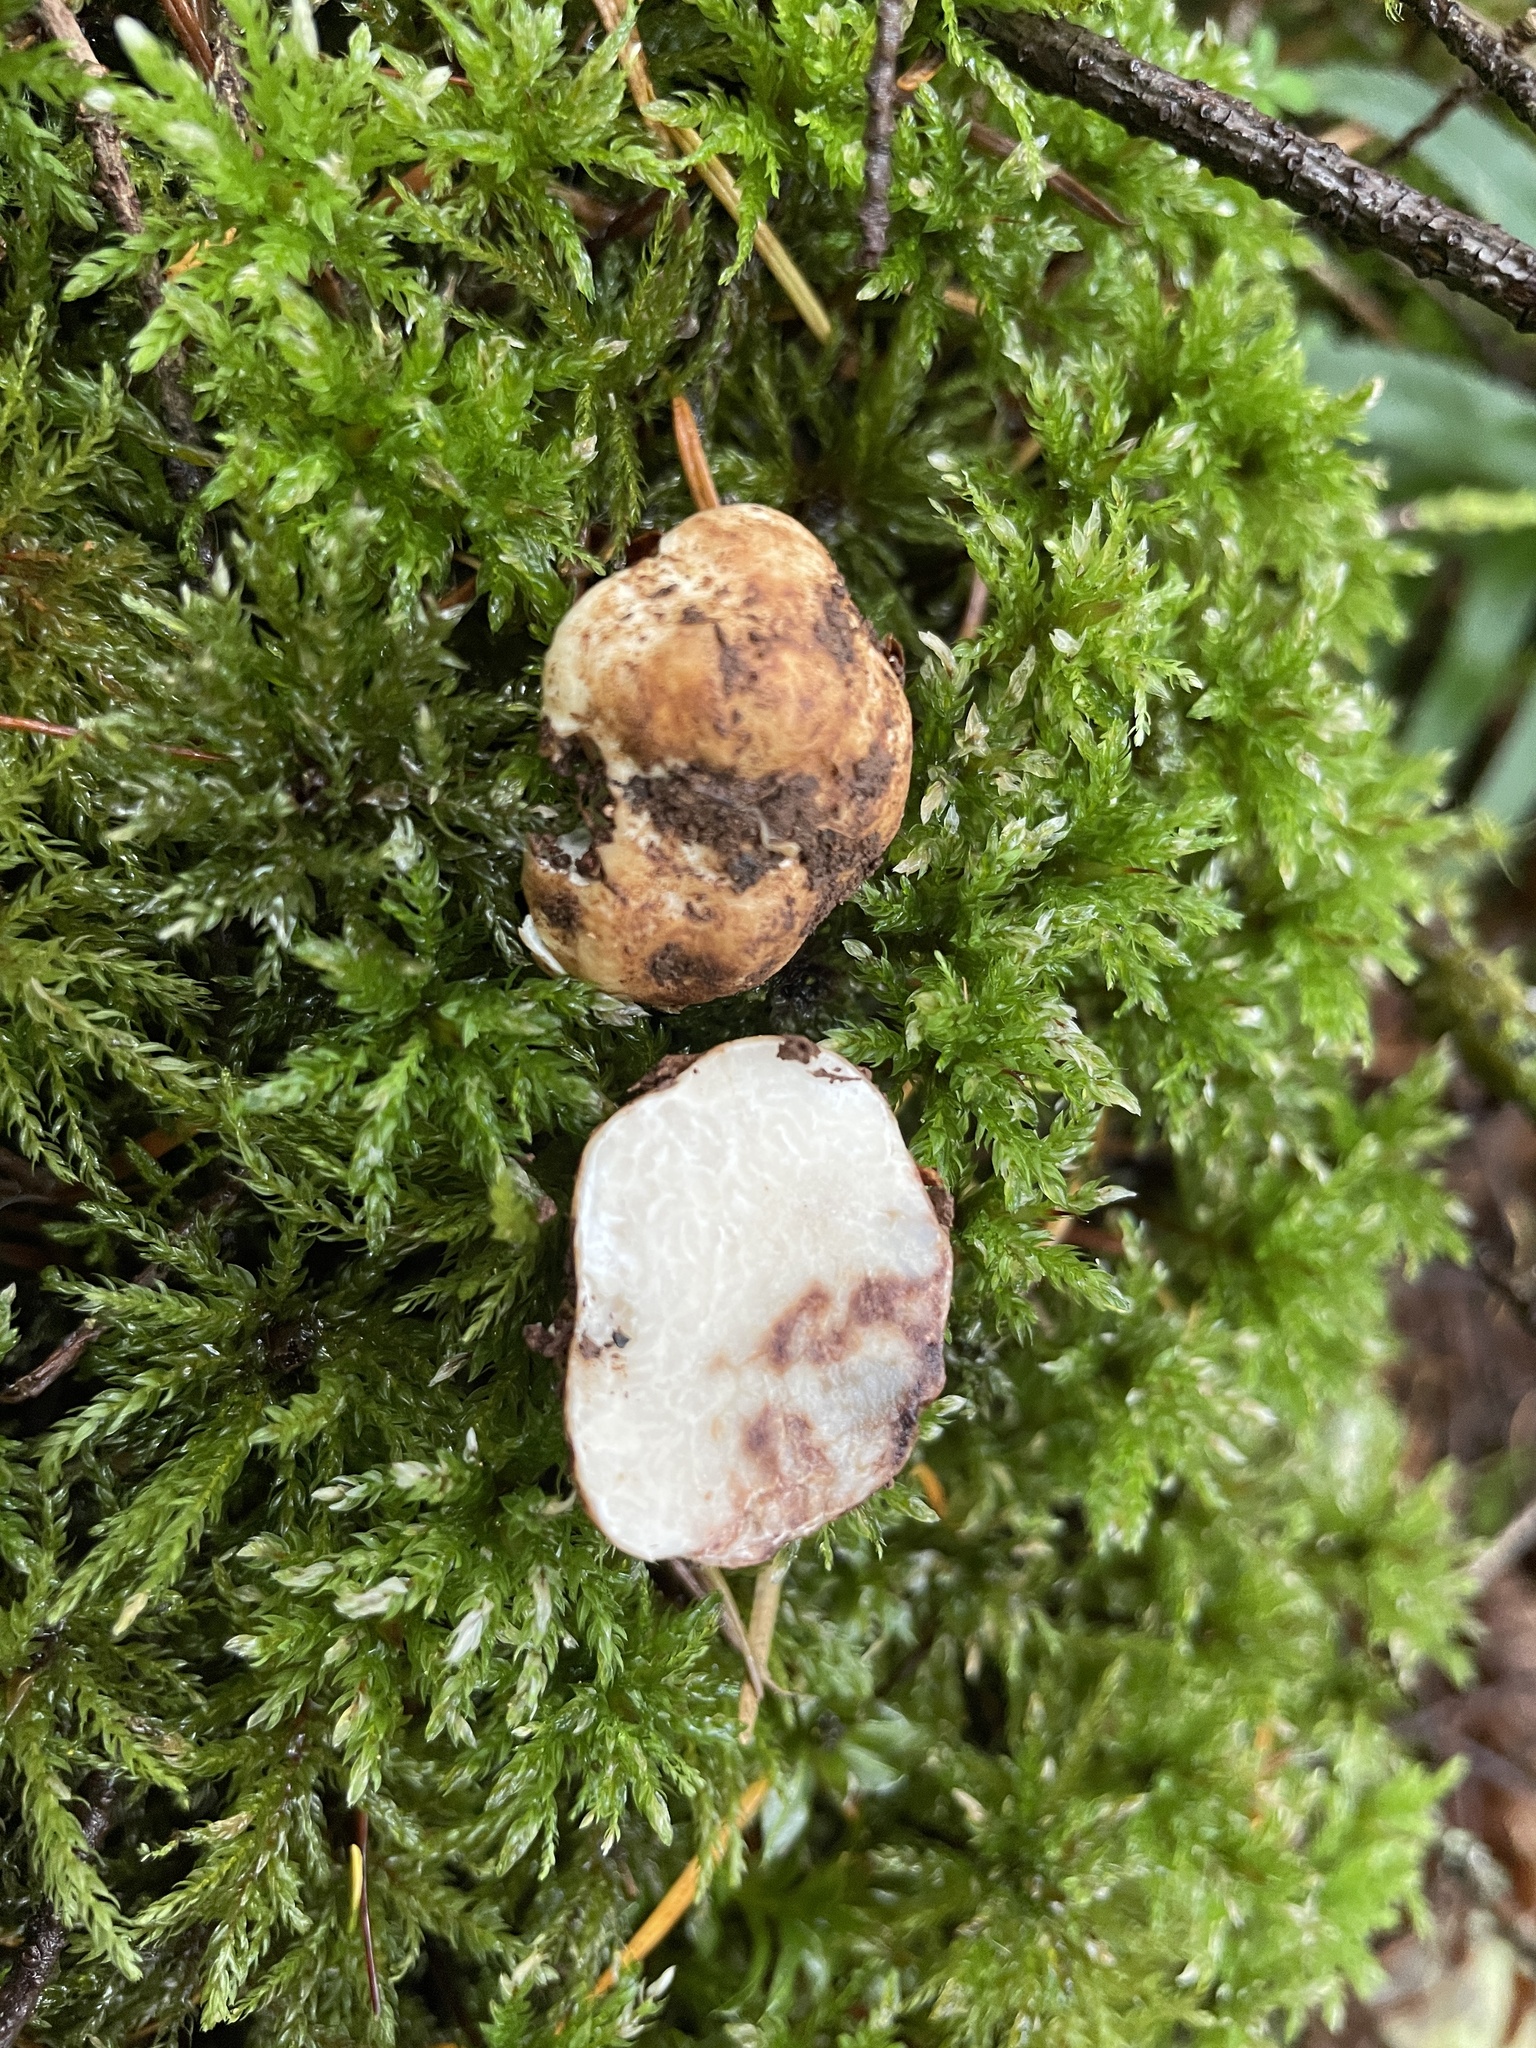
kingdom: Fungi
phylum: Ascomycota
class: Pezizomycetes
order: Pezizales
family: Tuberaceae
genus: Tuber
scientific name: Tuber oregonense
